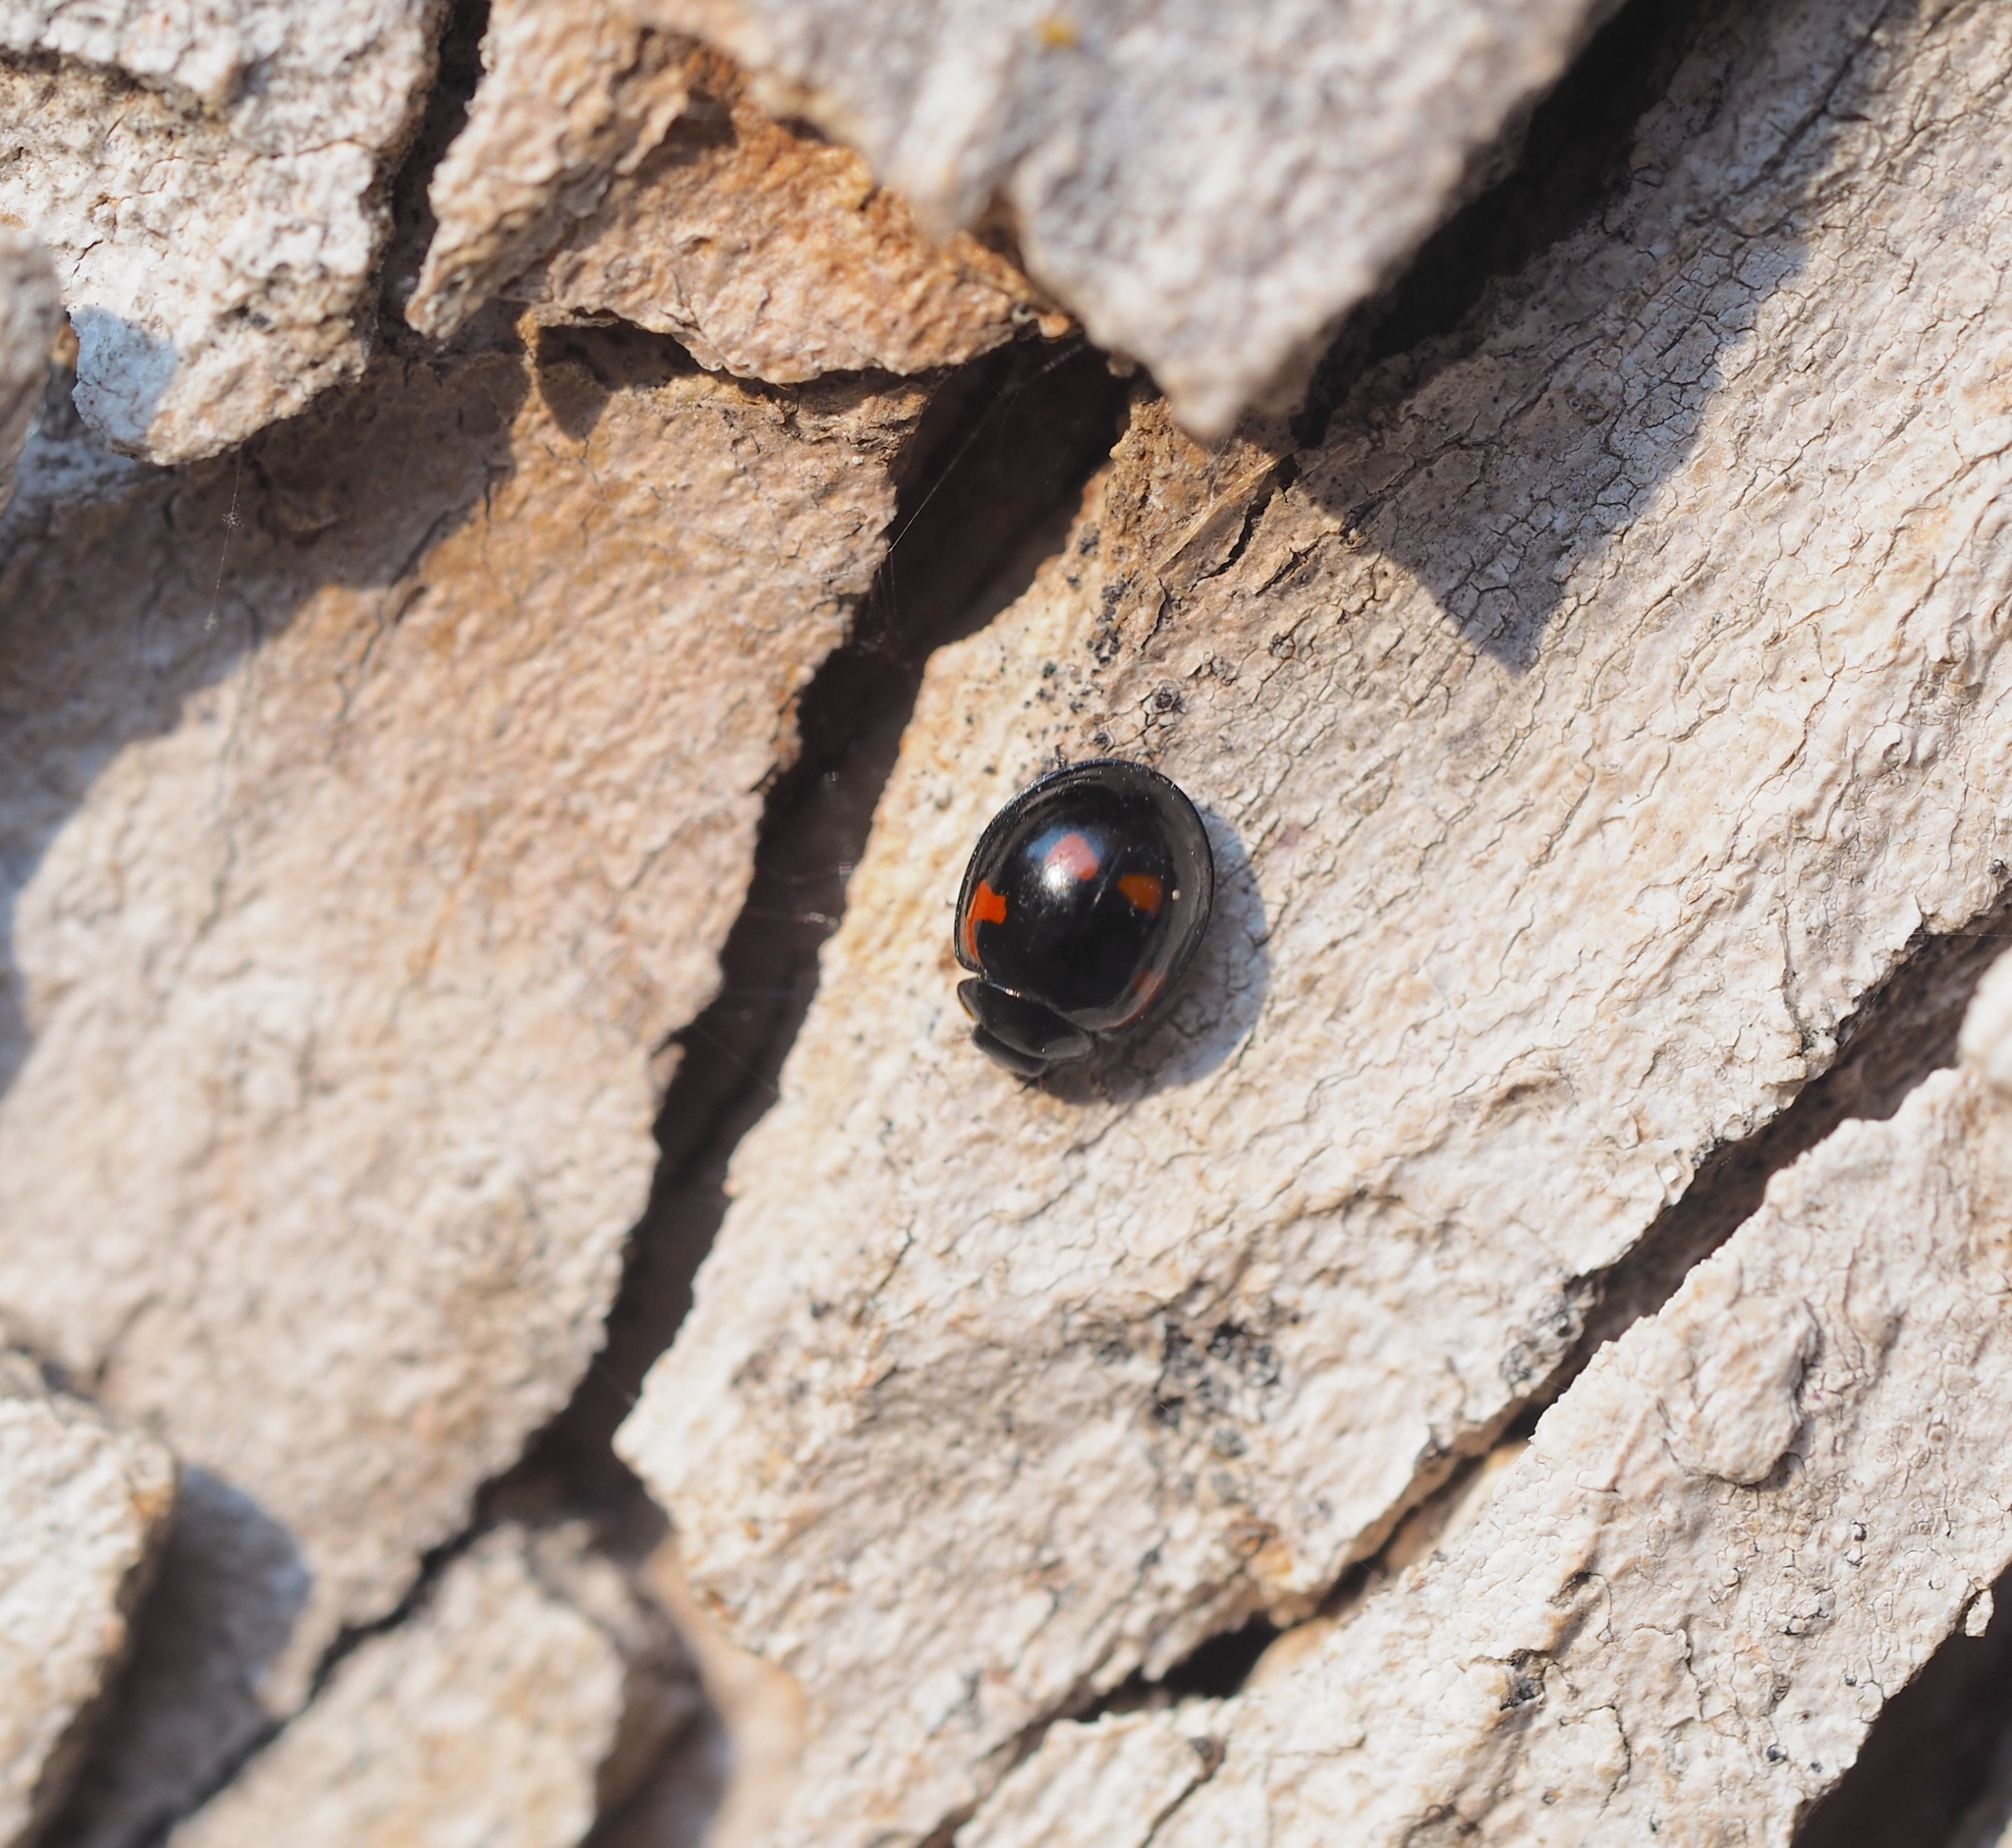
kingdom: Animalia
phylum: Arthropoda
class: Insecta
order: Coleoptera
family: Coccinellidae
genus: Brumus
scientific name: Brumus quadripustulatus
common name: Ladybird beetle
